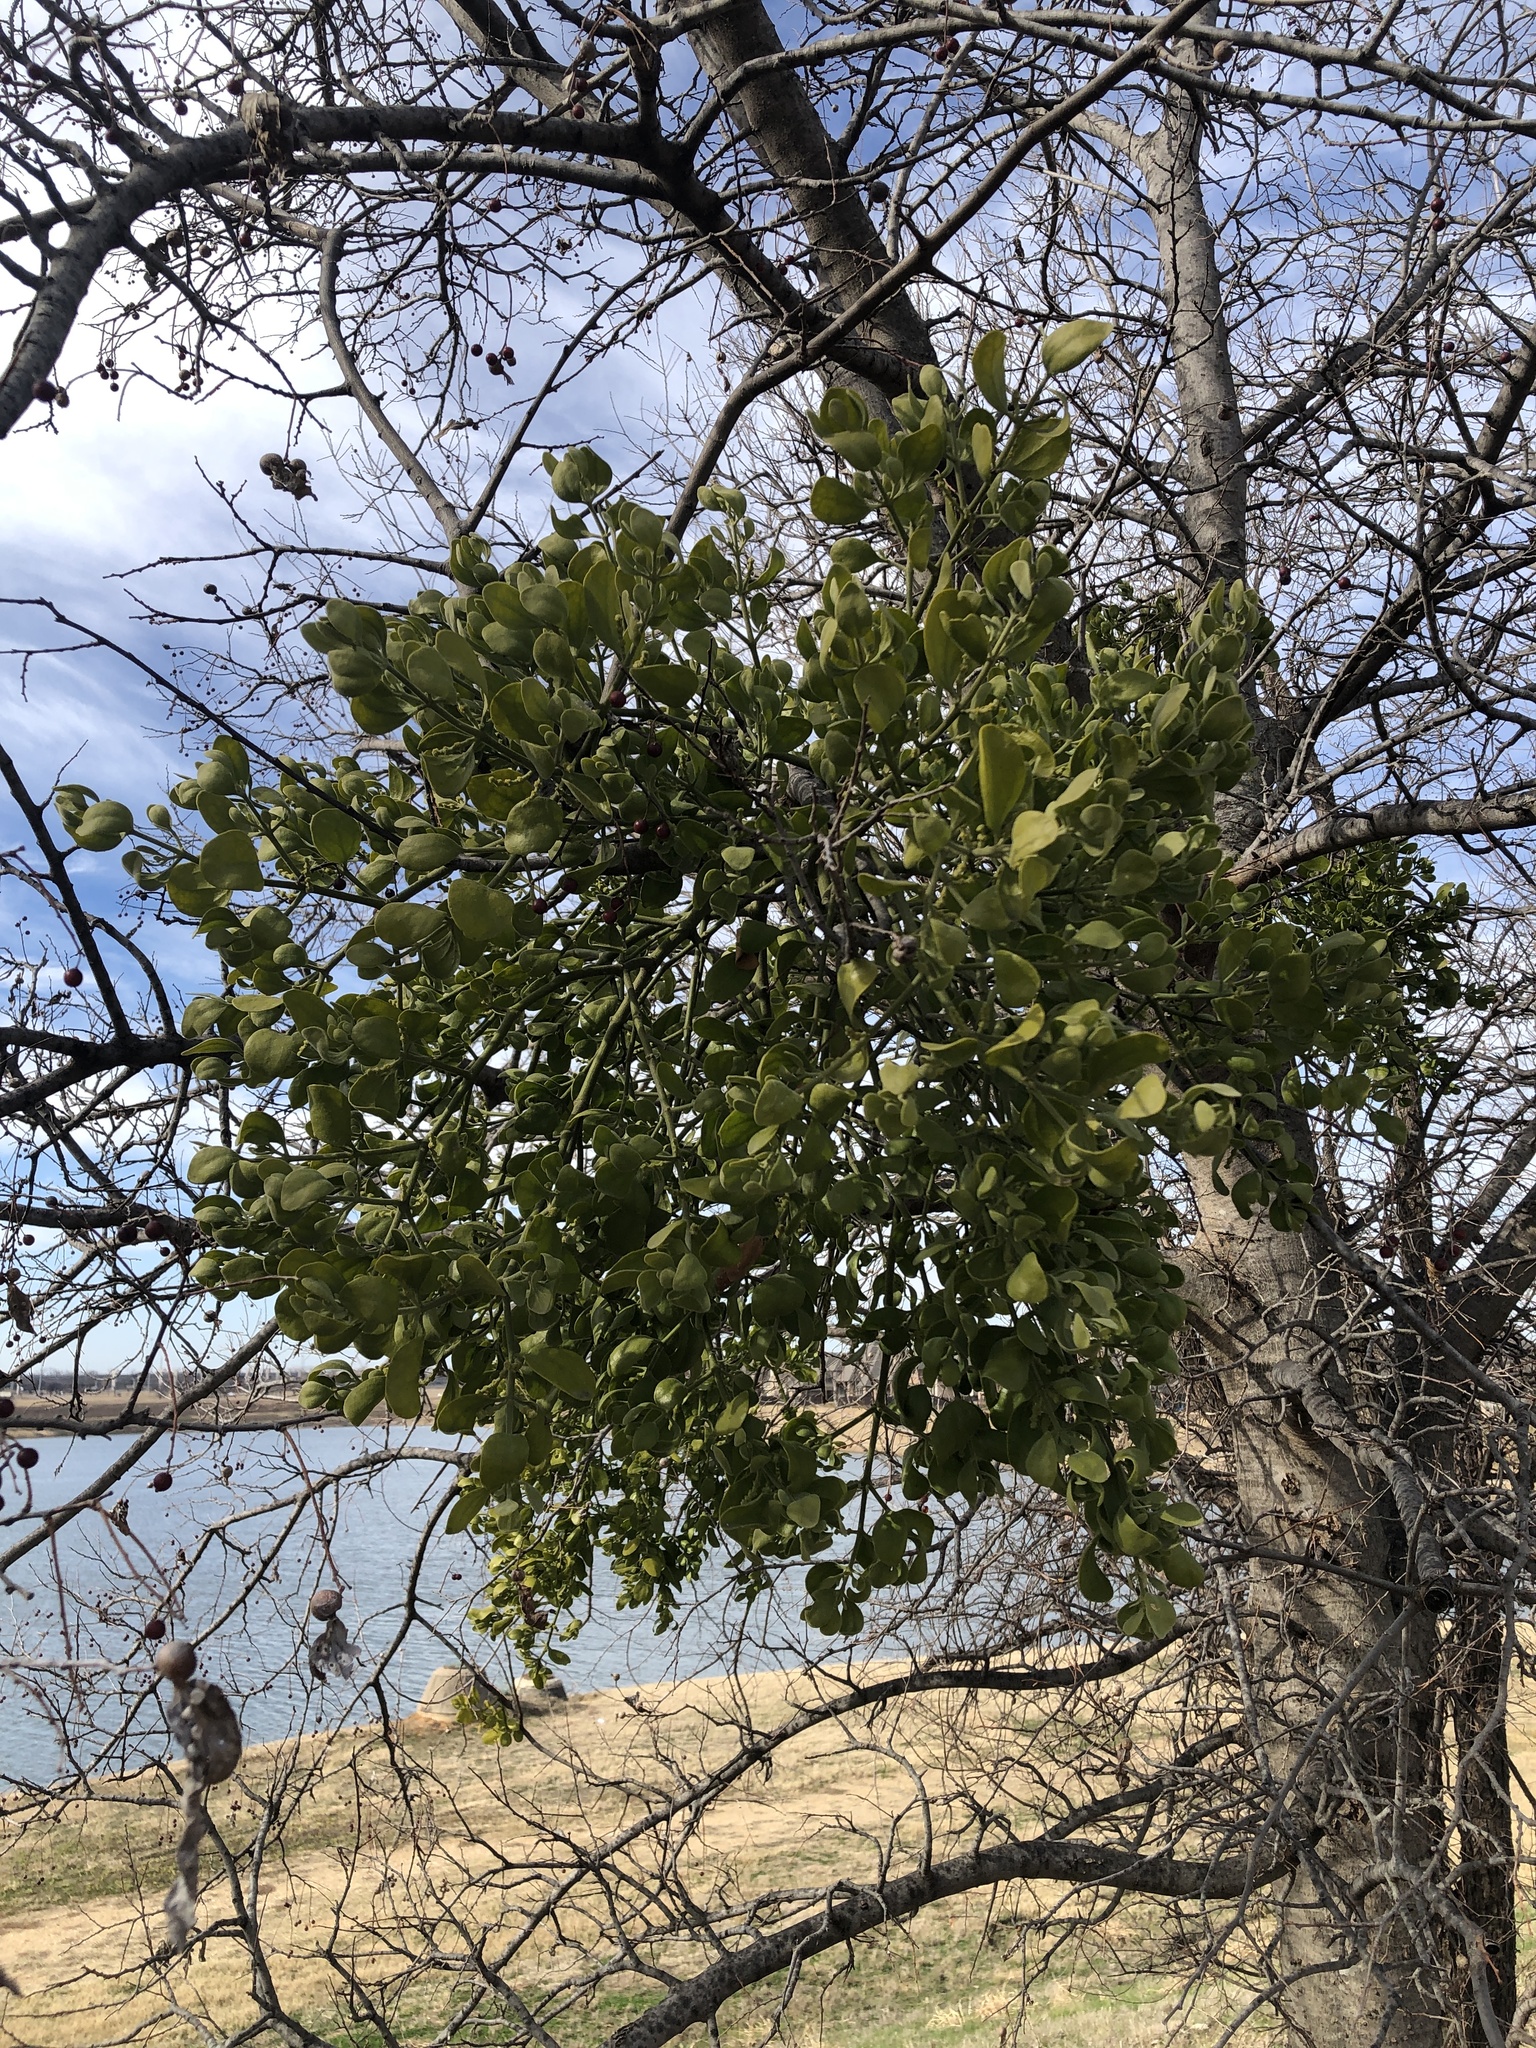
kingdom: Plantae
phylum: Tracheophyta
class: Magnoliopsida
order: Santalales
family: Viscaceae
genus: Phoradendron
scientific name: Phoradendron leucarpum
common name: Pacific mistletoe
